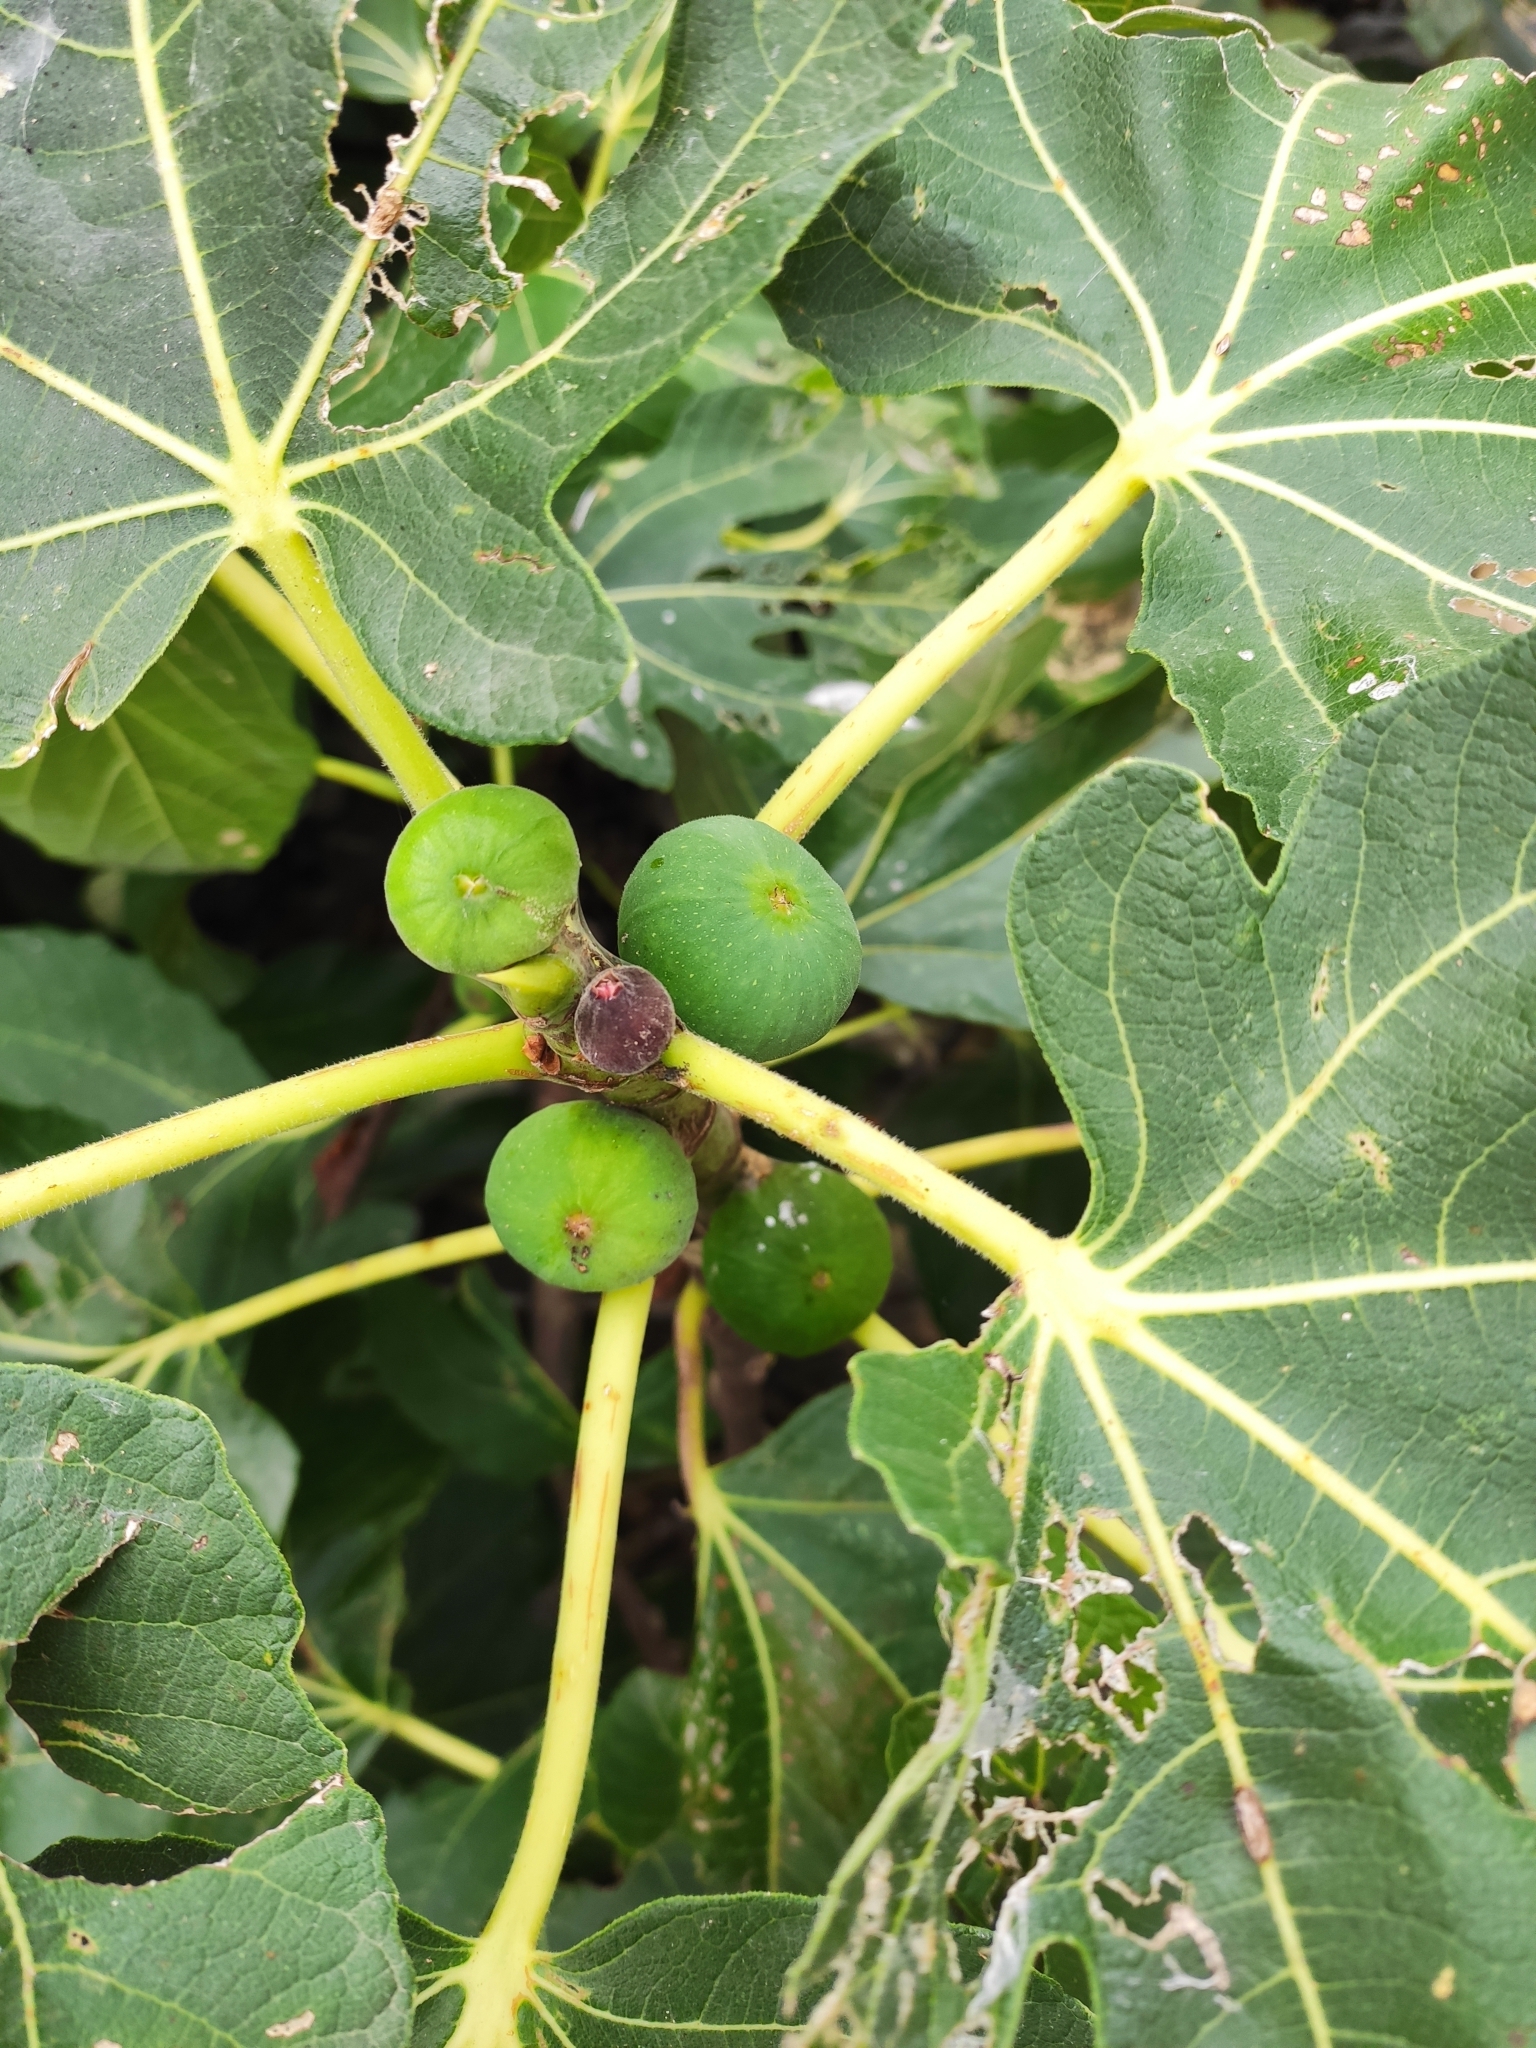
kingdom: Plantae
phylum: Tracheophyta
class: Magnoliopsida
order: Rosales
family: Moraceae
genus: Ficus
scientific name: Ficus carica
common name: Fig
